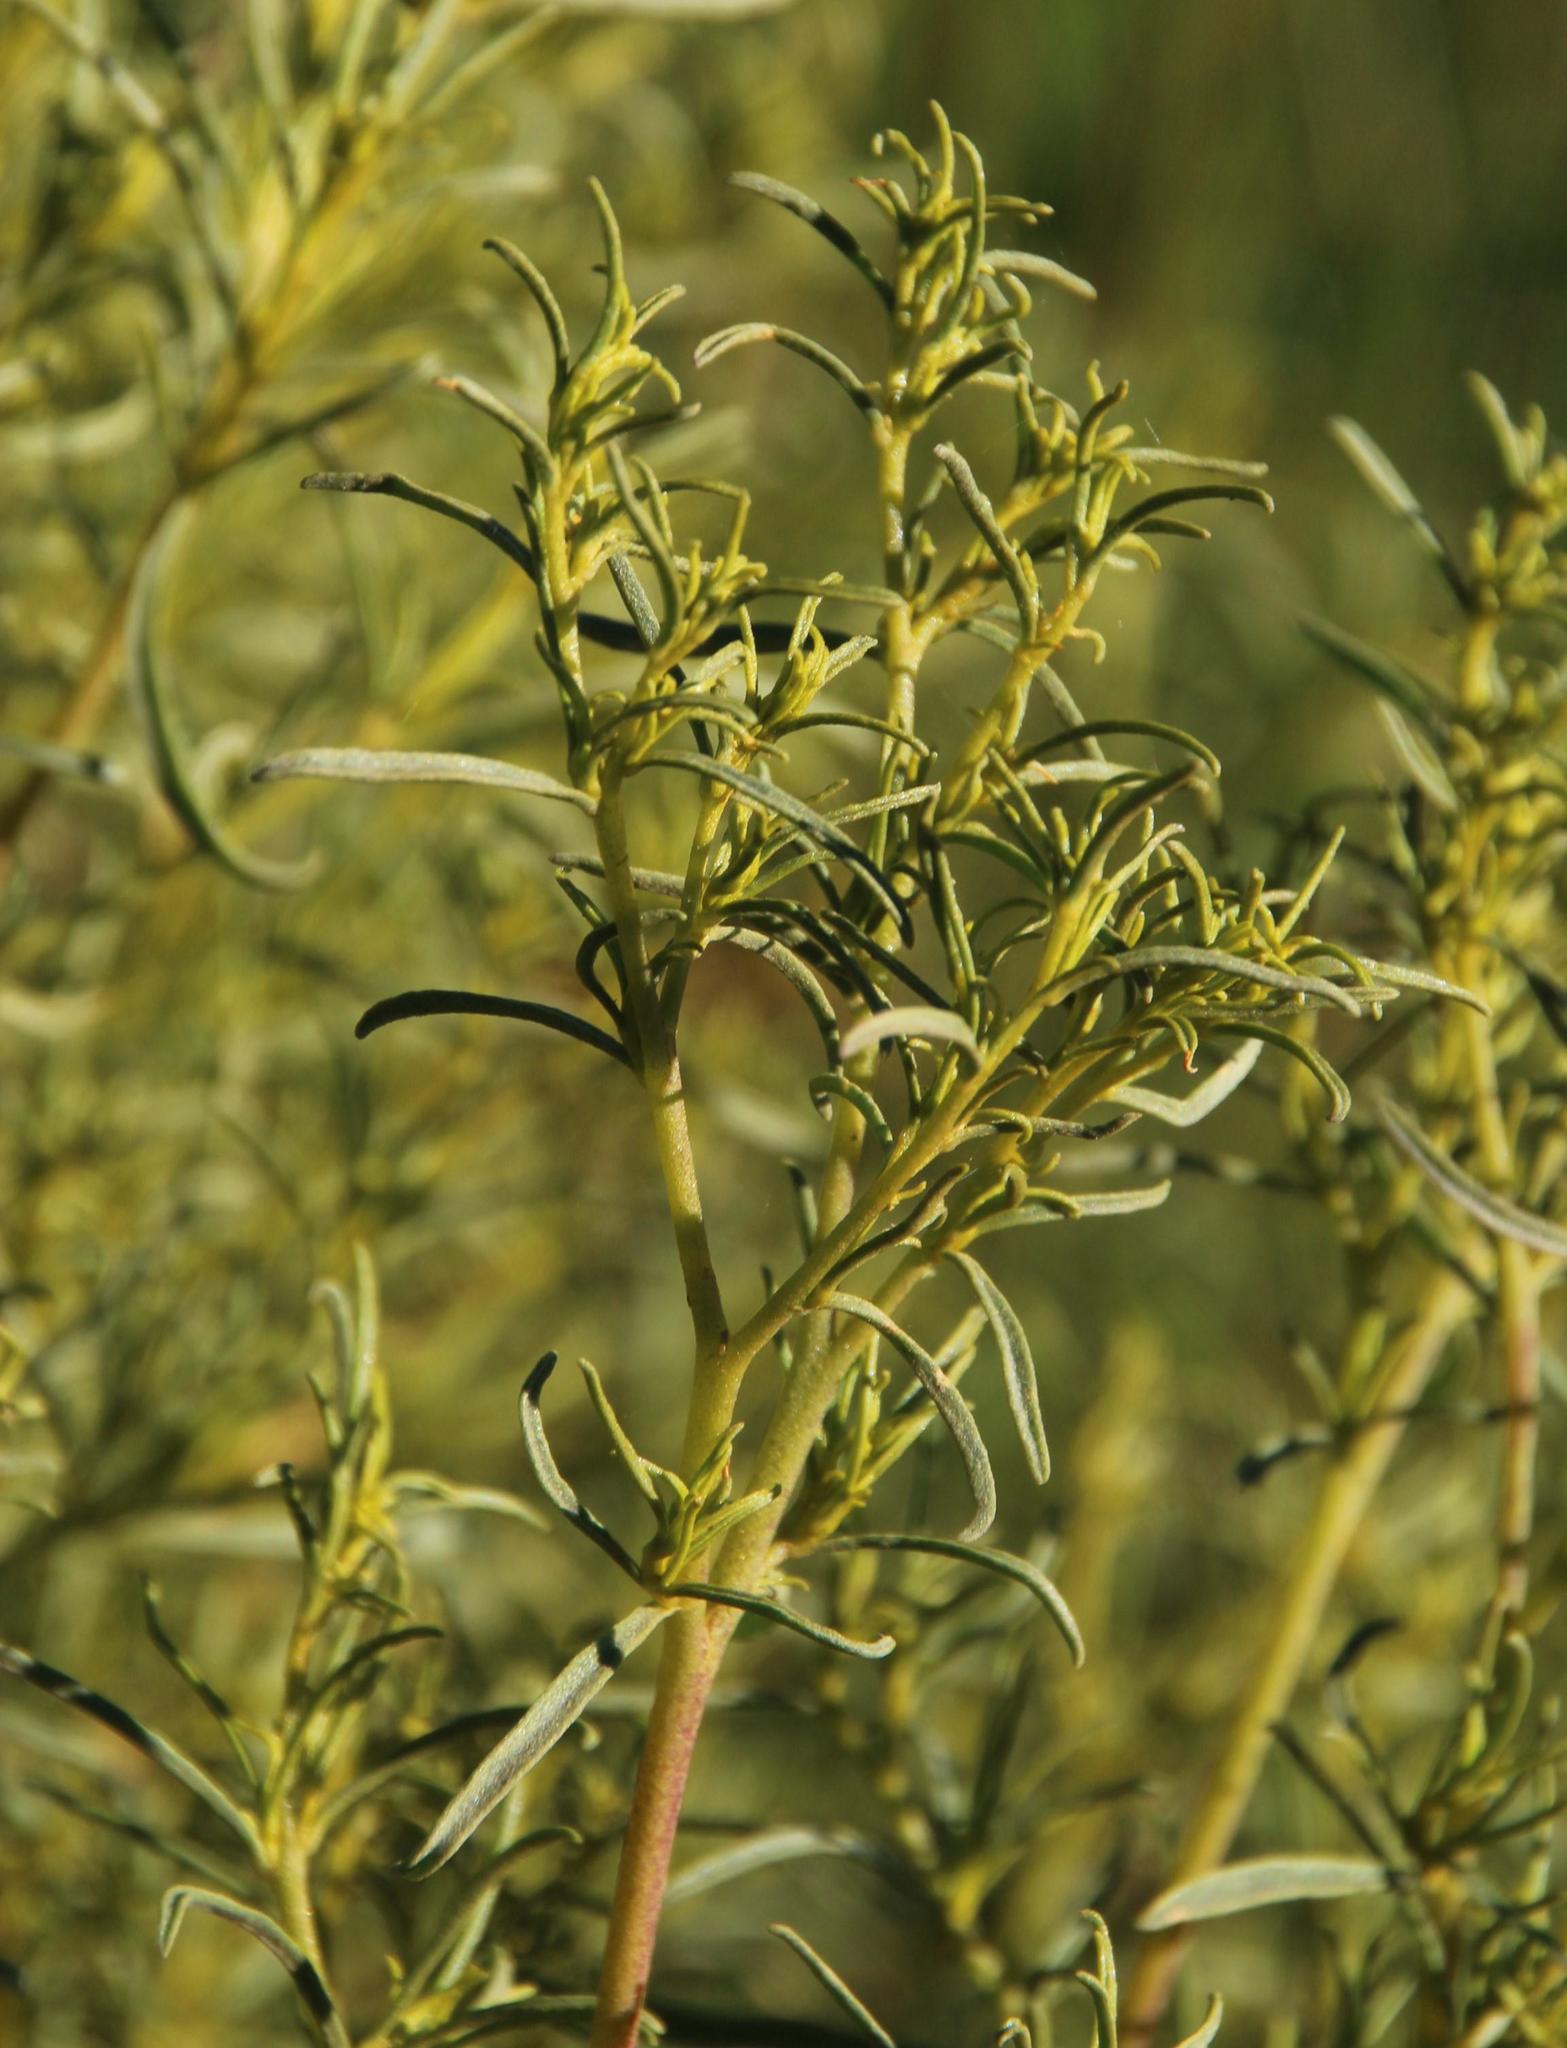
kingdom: Plantae
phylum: Tracheophyta
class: Magnoliopsida
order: Caryophyllales
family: Aizoaceae
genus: Aizoon
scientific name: Aizoon africanum
